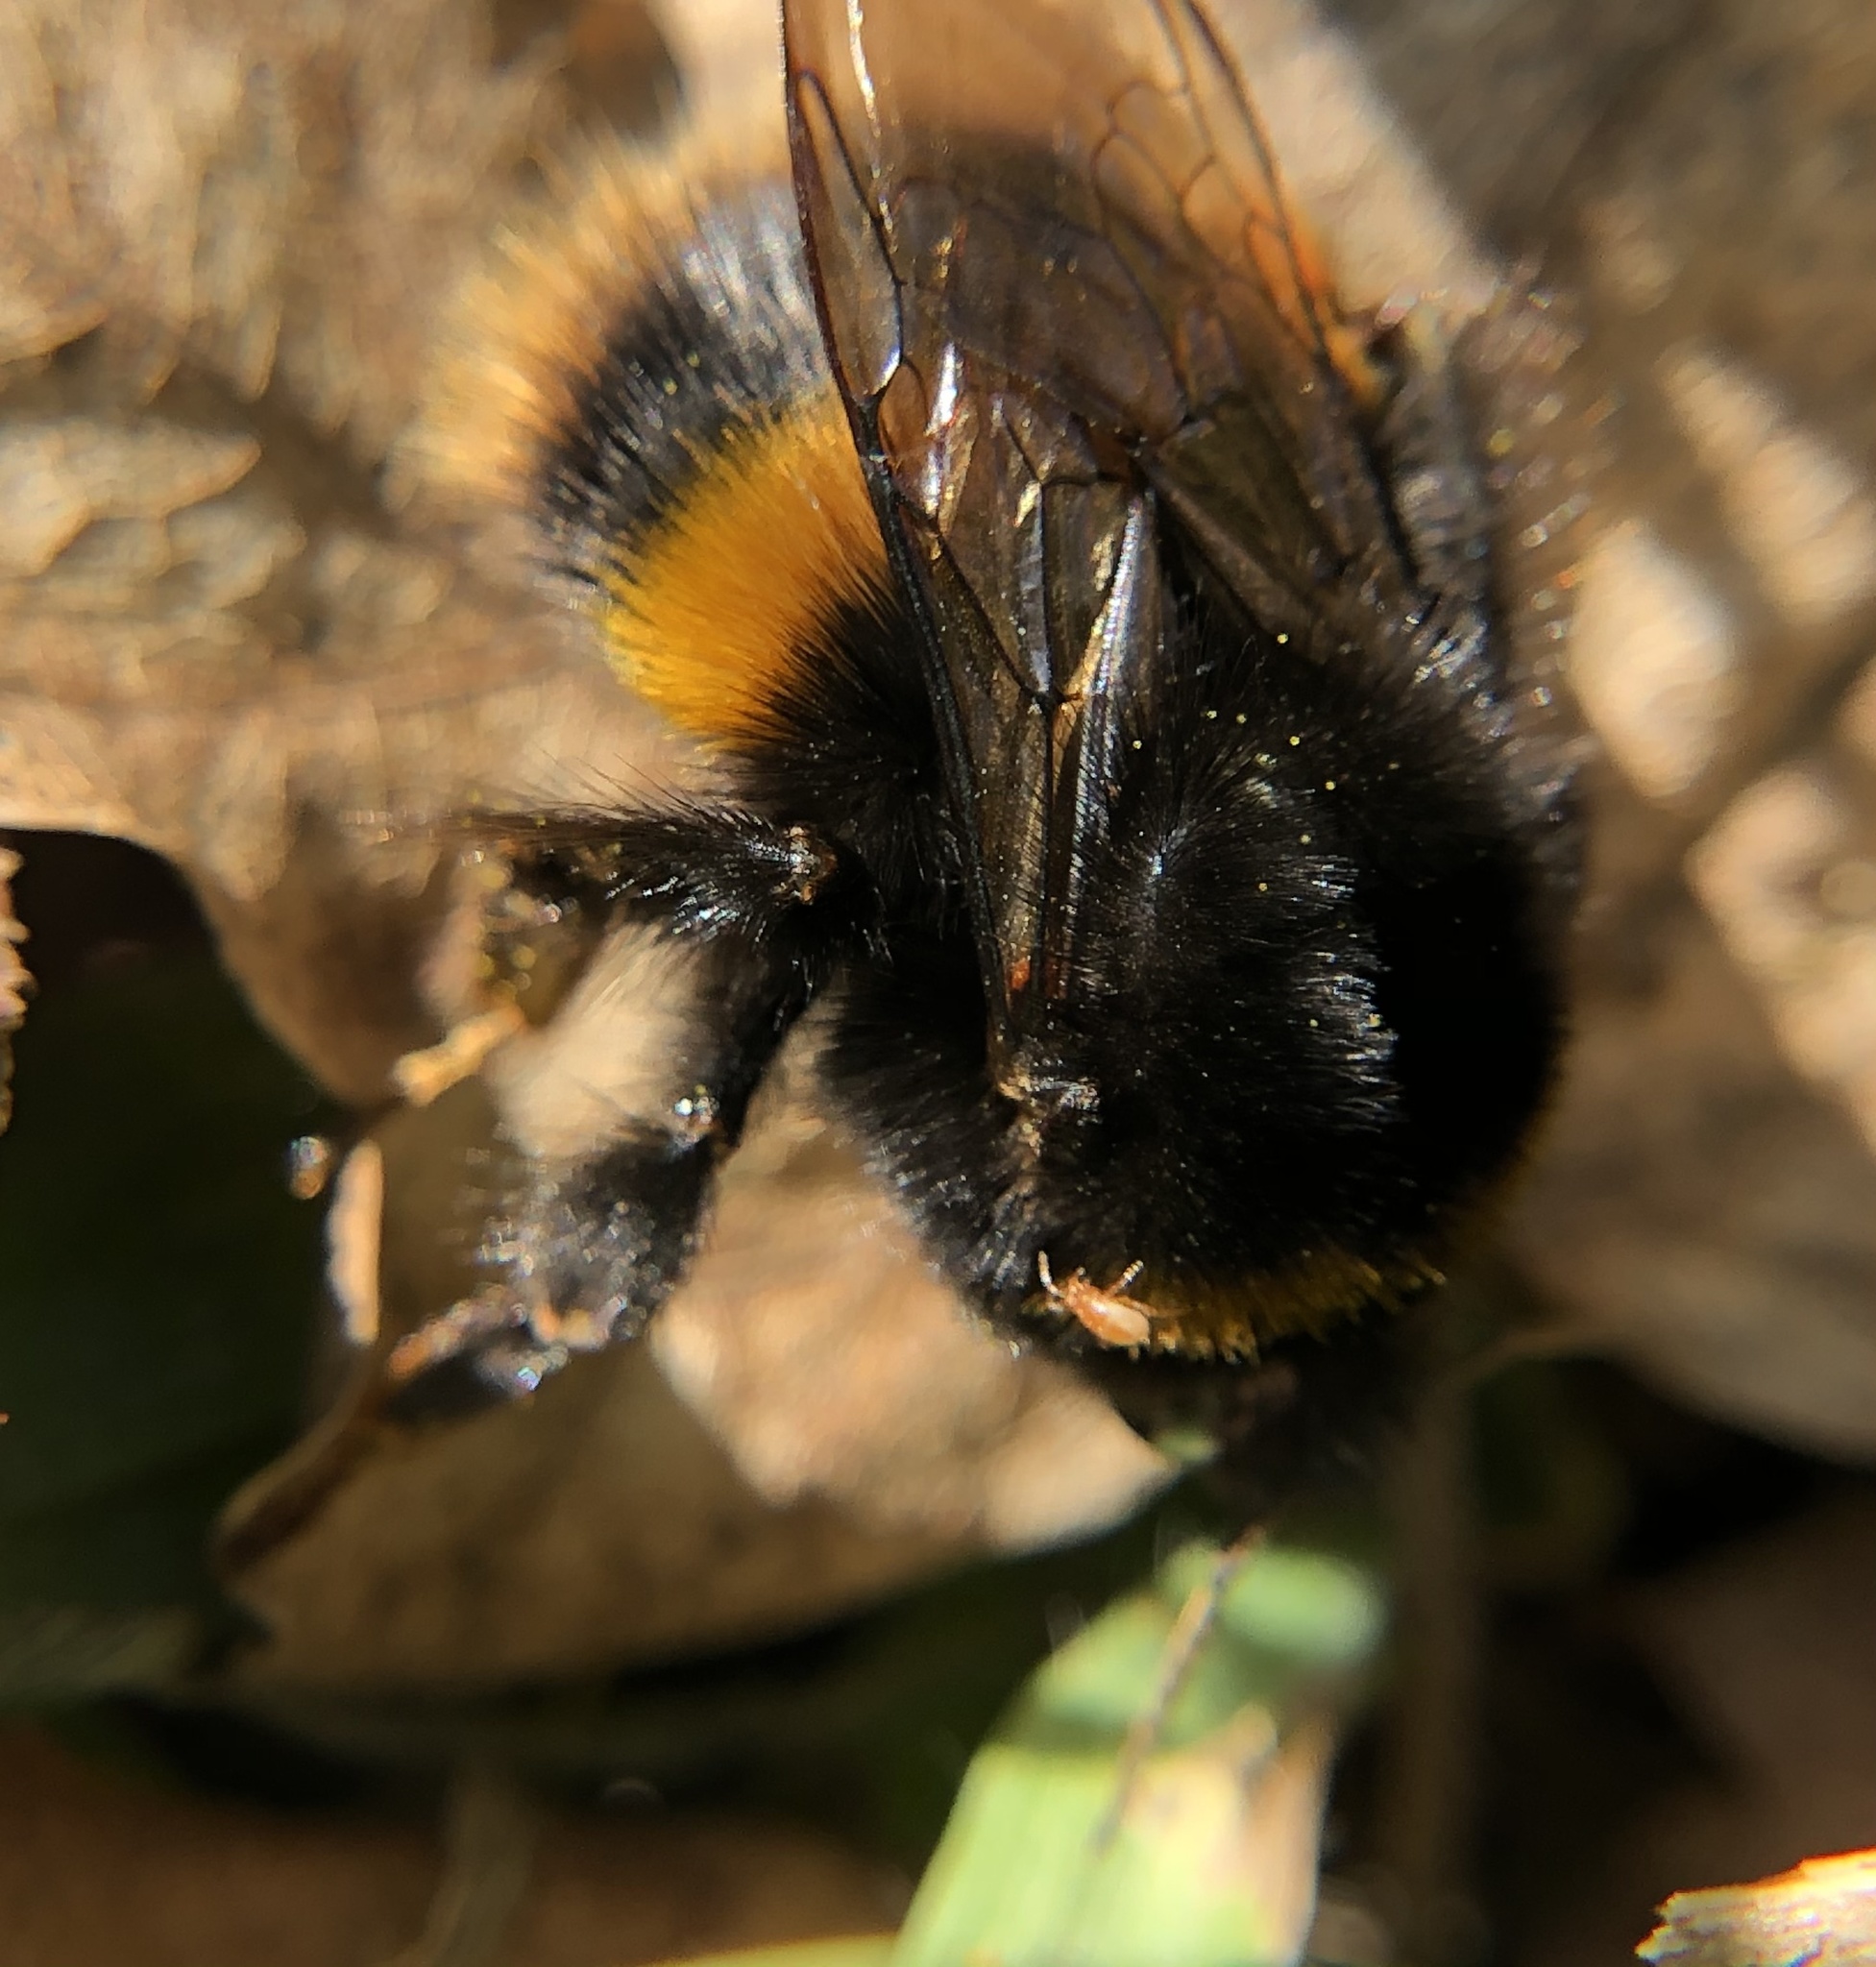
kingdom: Animalia
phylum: Arthropoda
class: Insecta
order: Hymenoptera
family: Apidae
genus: Bombus
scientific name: Bombus terrestris
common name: Buff-tailed bumblebee
